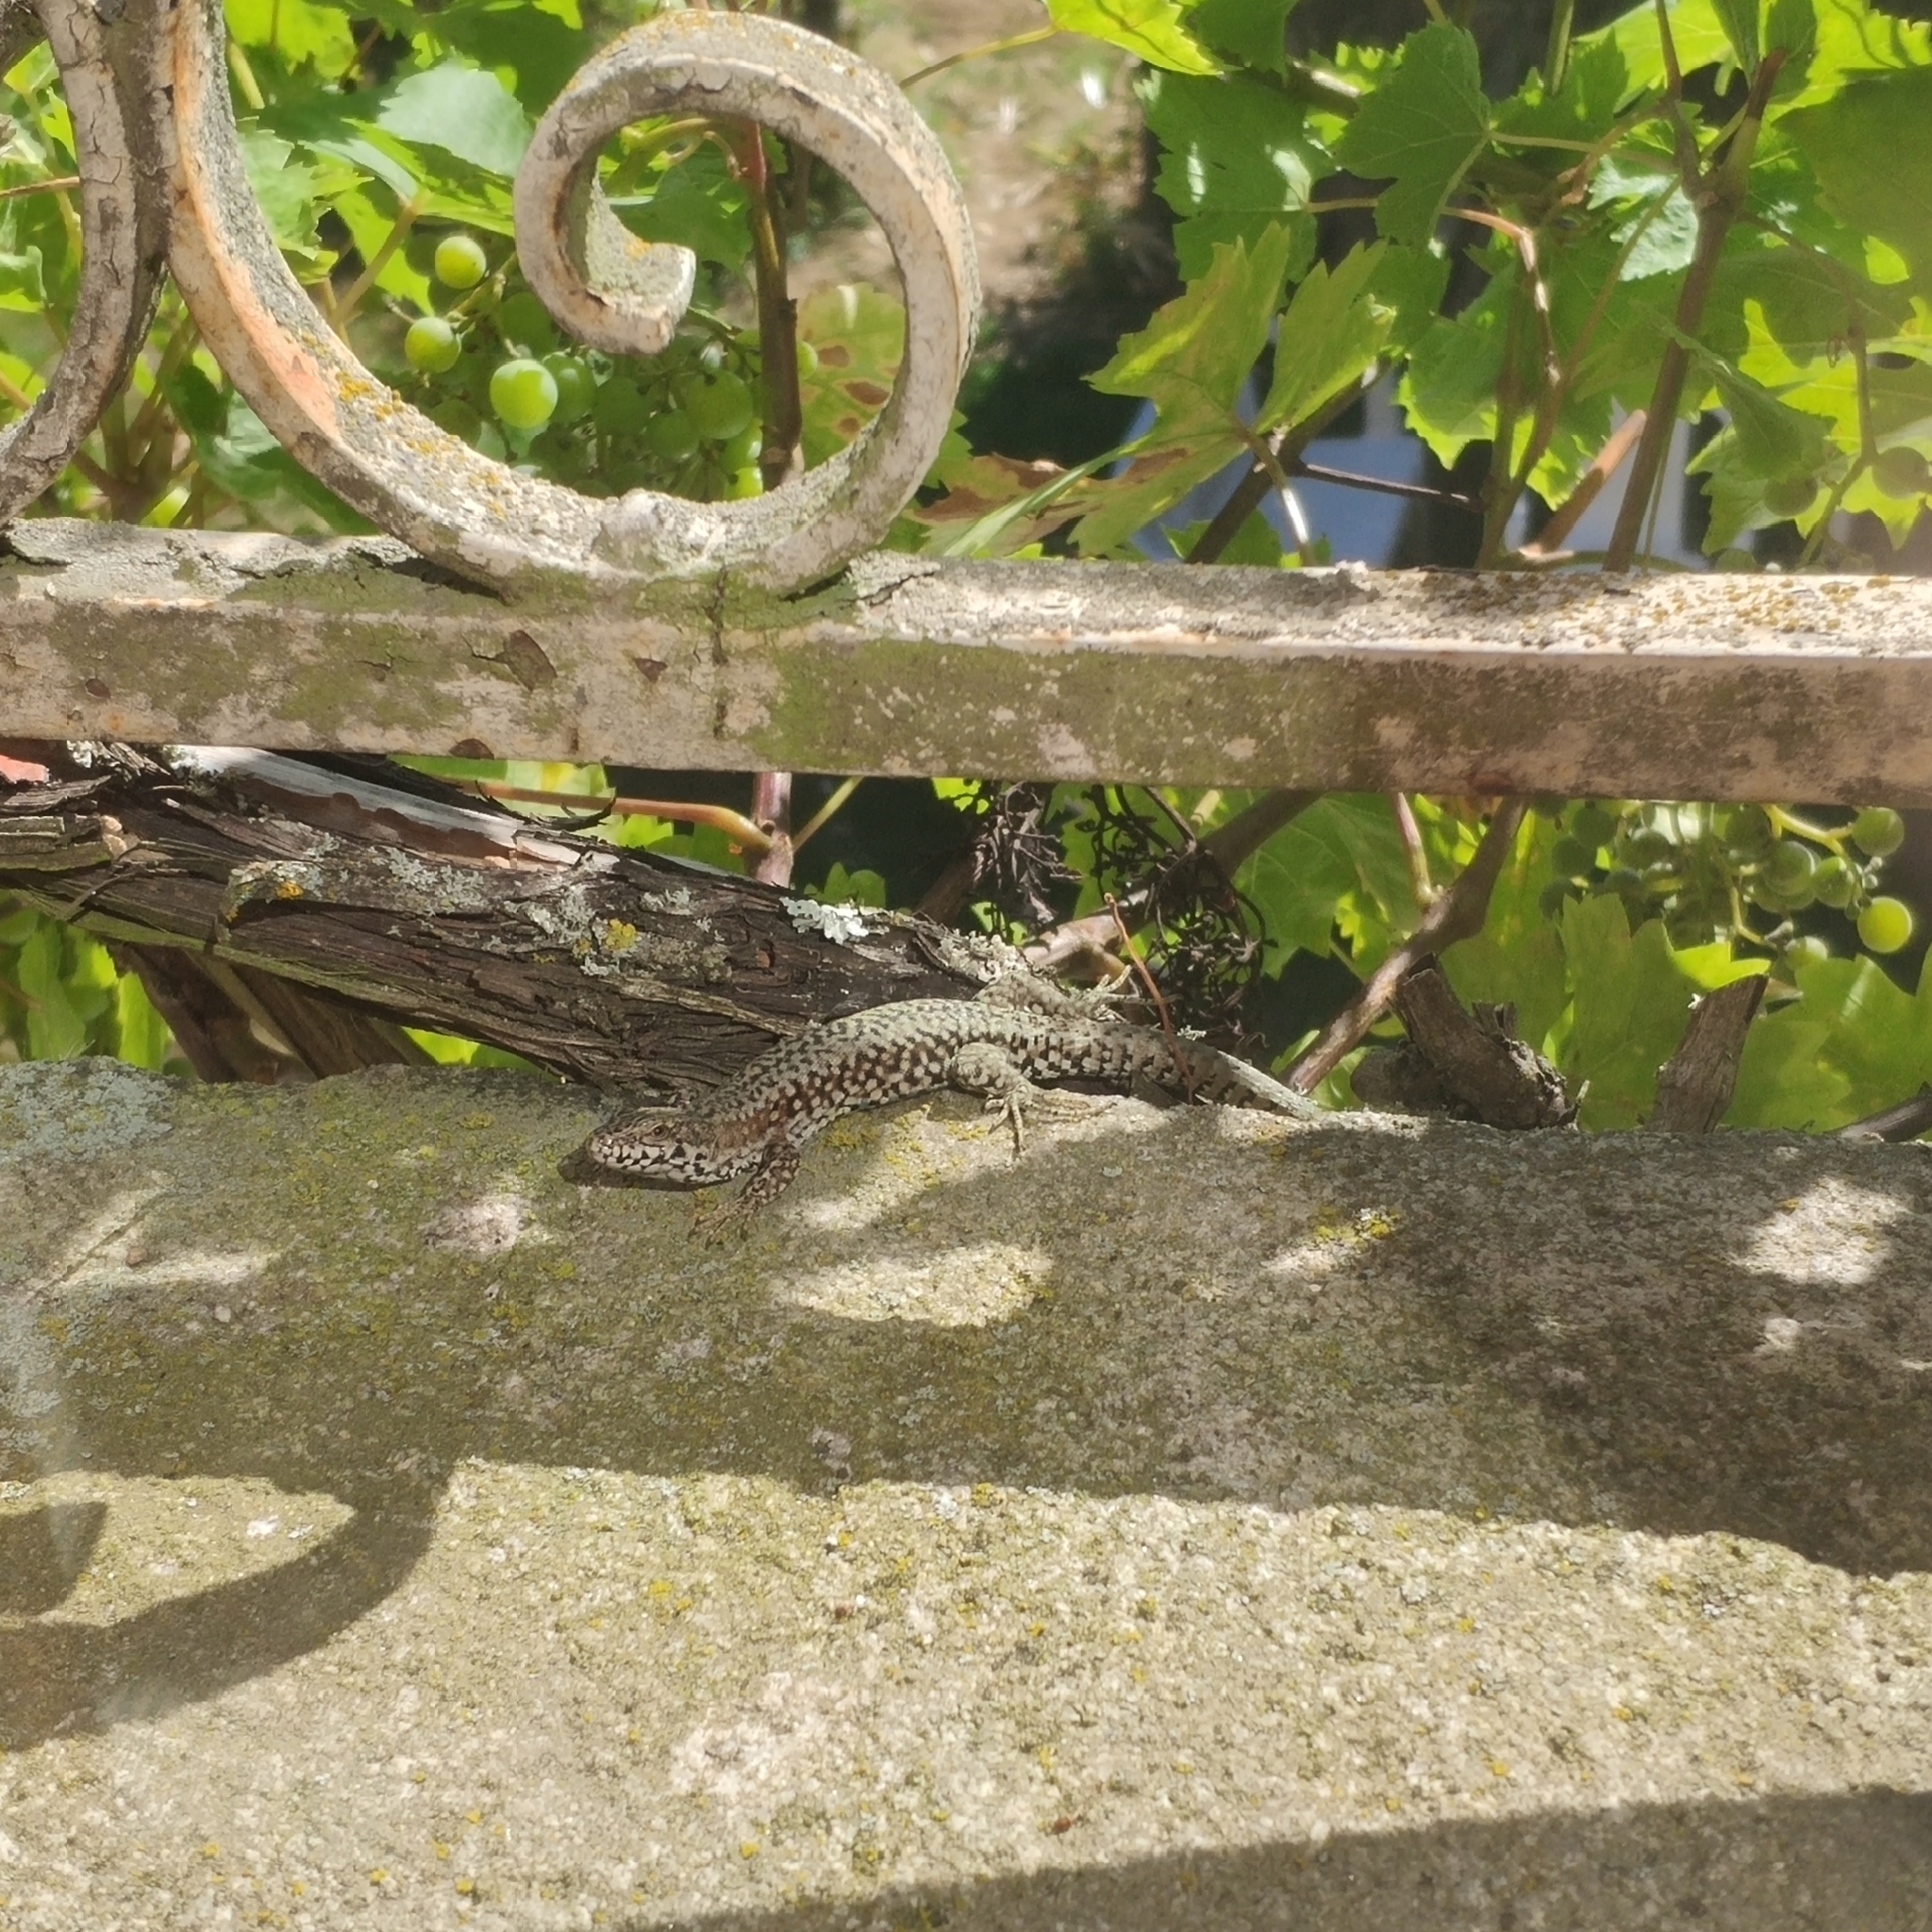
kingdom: Animalia
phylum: Chordata
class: Squamata
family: Lacertidae
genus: Podarcis
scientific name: Podarcis muralis
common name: Common wall lizard
